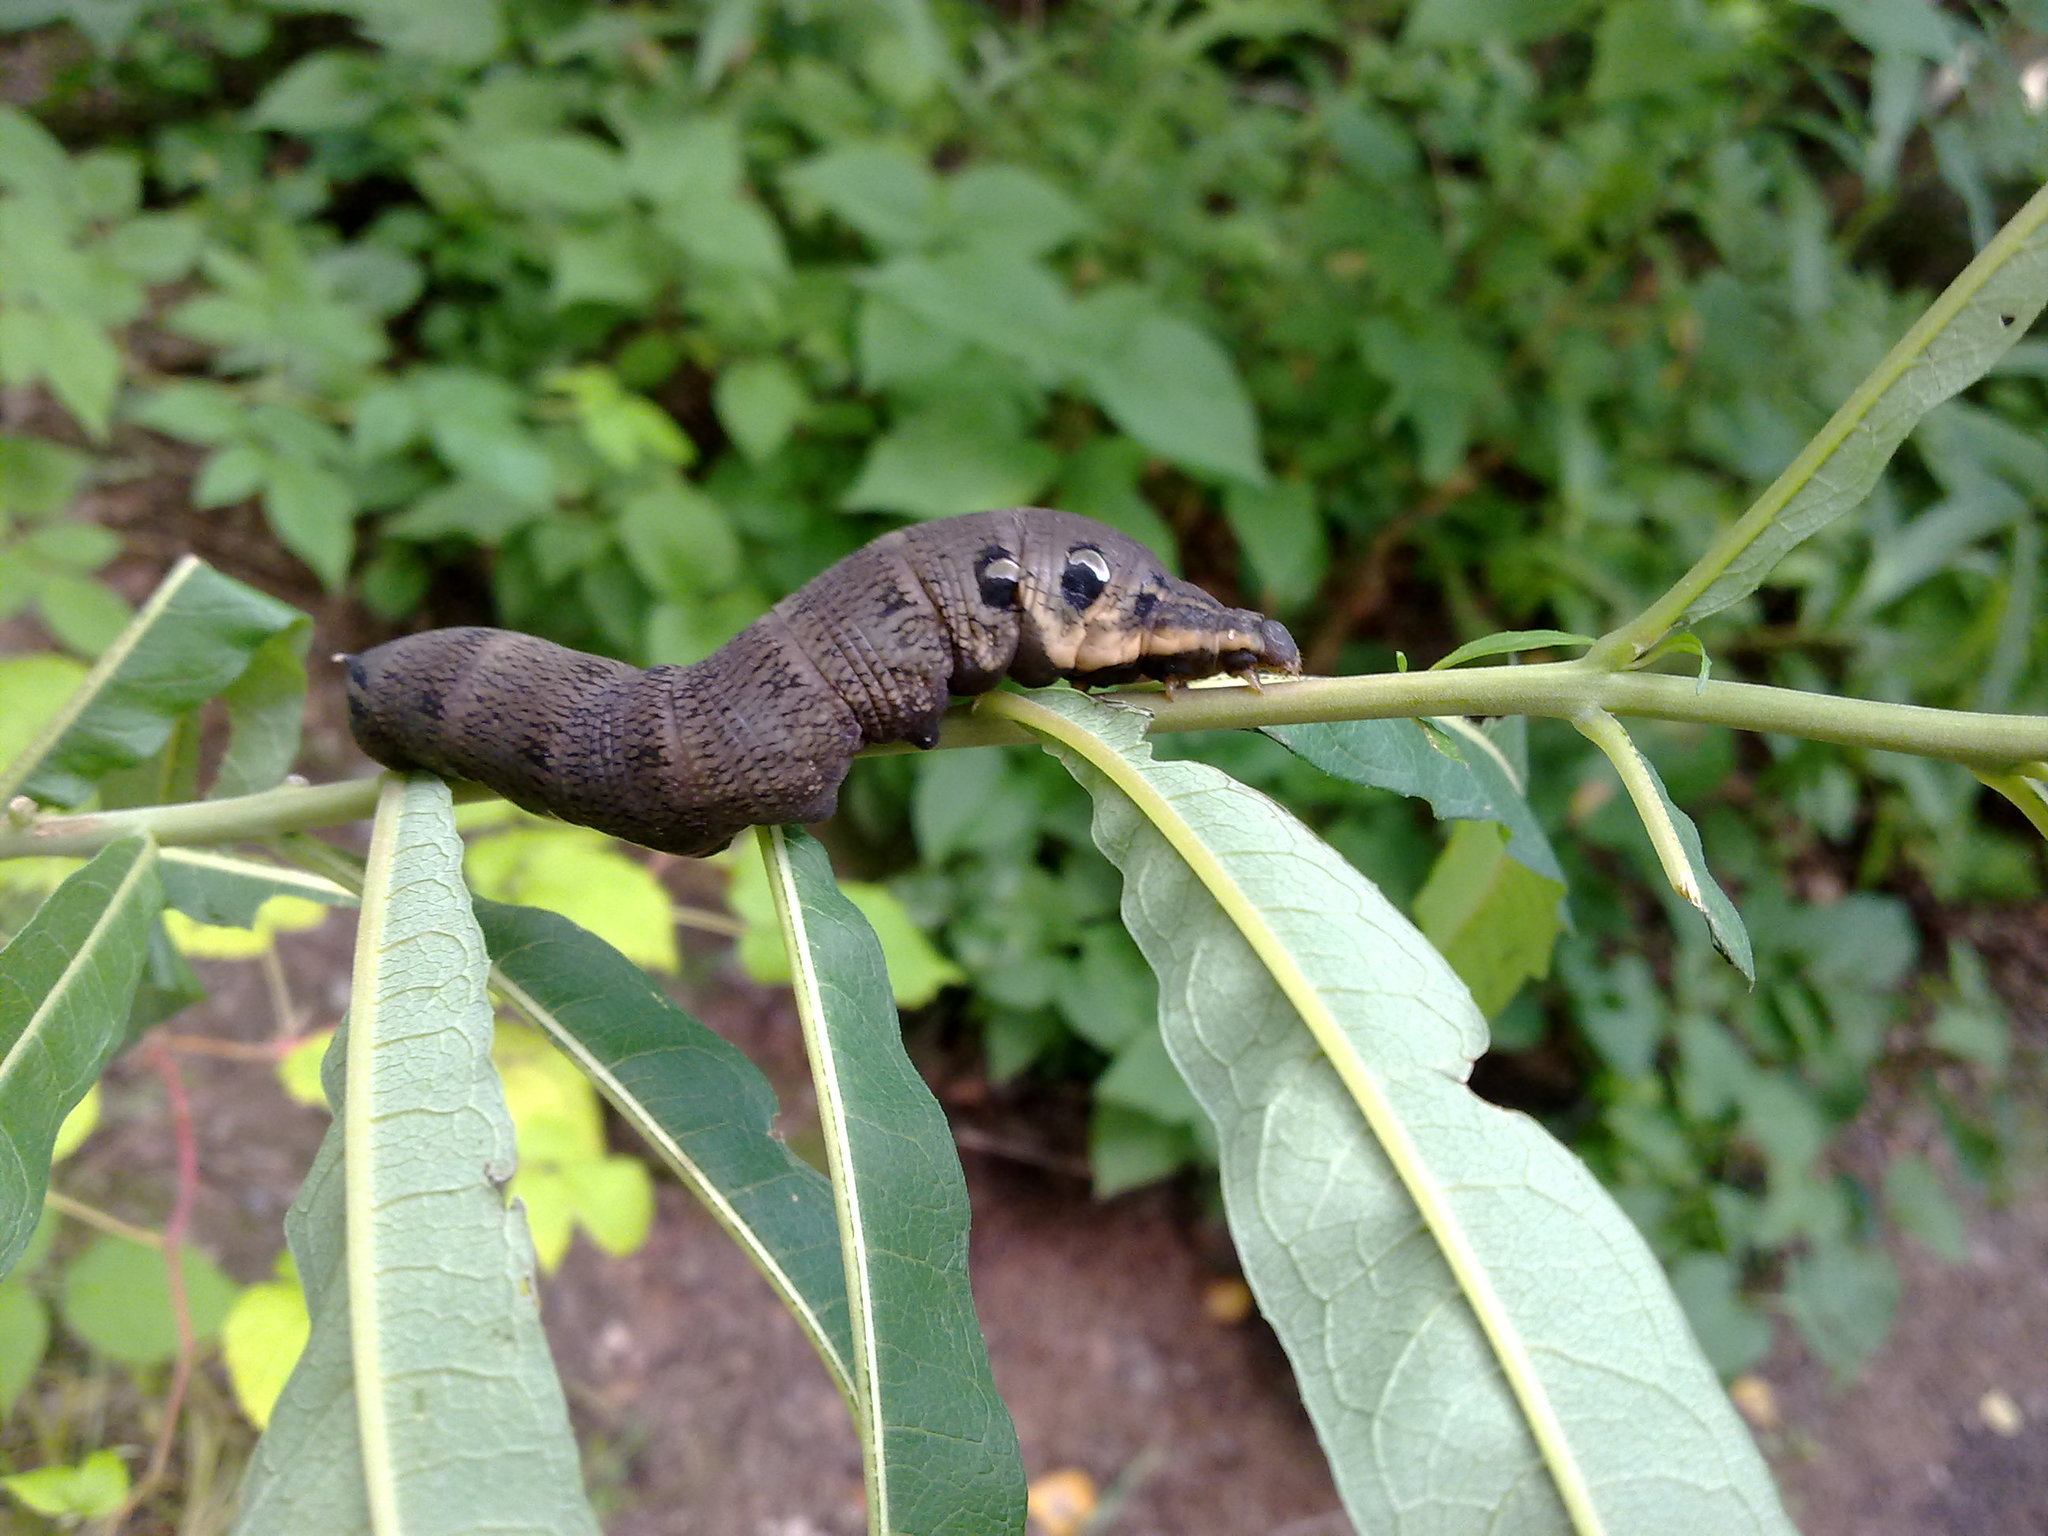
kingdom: Animalia
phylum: Arthropoda
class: Insecta
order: Lepidoptera
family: Sphingidae
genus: Deilephila
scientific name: Deilephila elpenor
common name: Elephant hawk-moth
